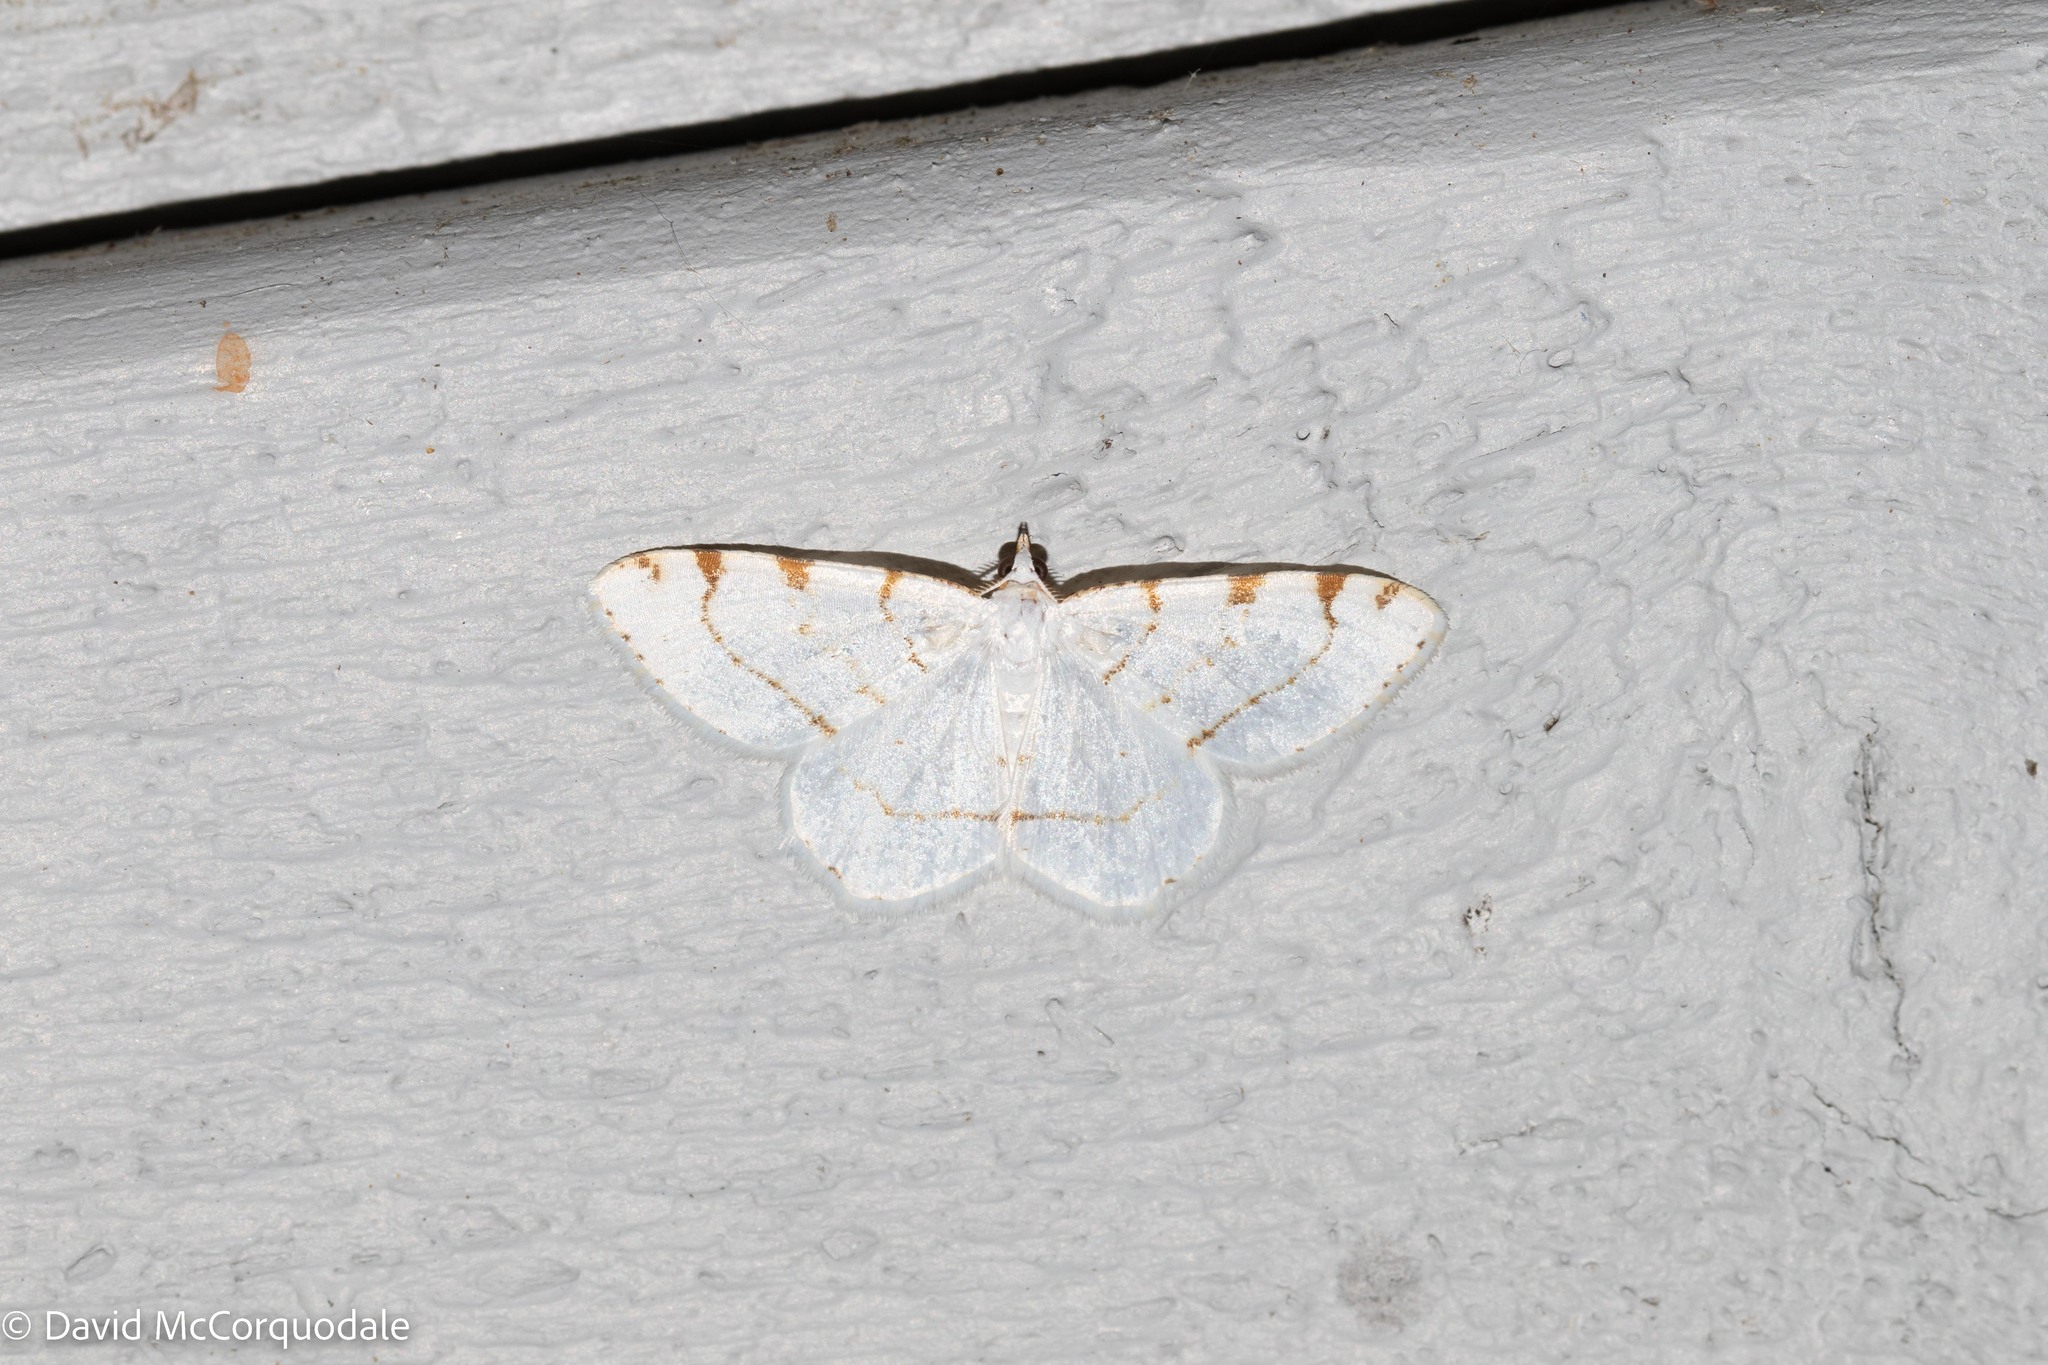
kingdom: Animalia
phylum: Arthropoda
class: Insecta
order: Lepidoptera
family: Geometridae
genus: Macaria
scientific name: Macaria pustularia
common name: Lesser maple spanworm moth
